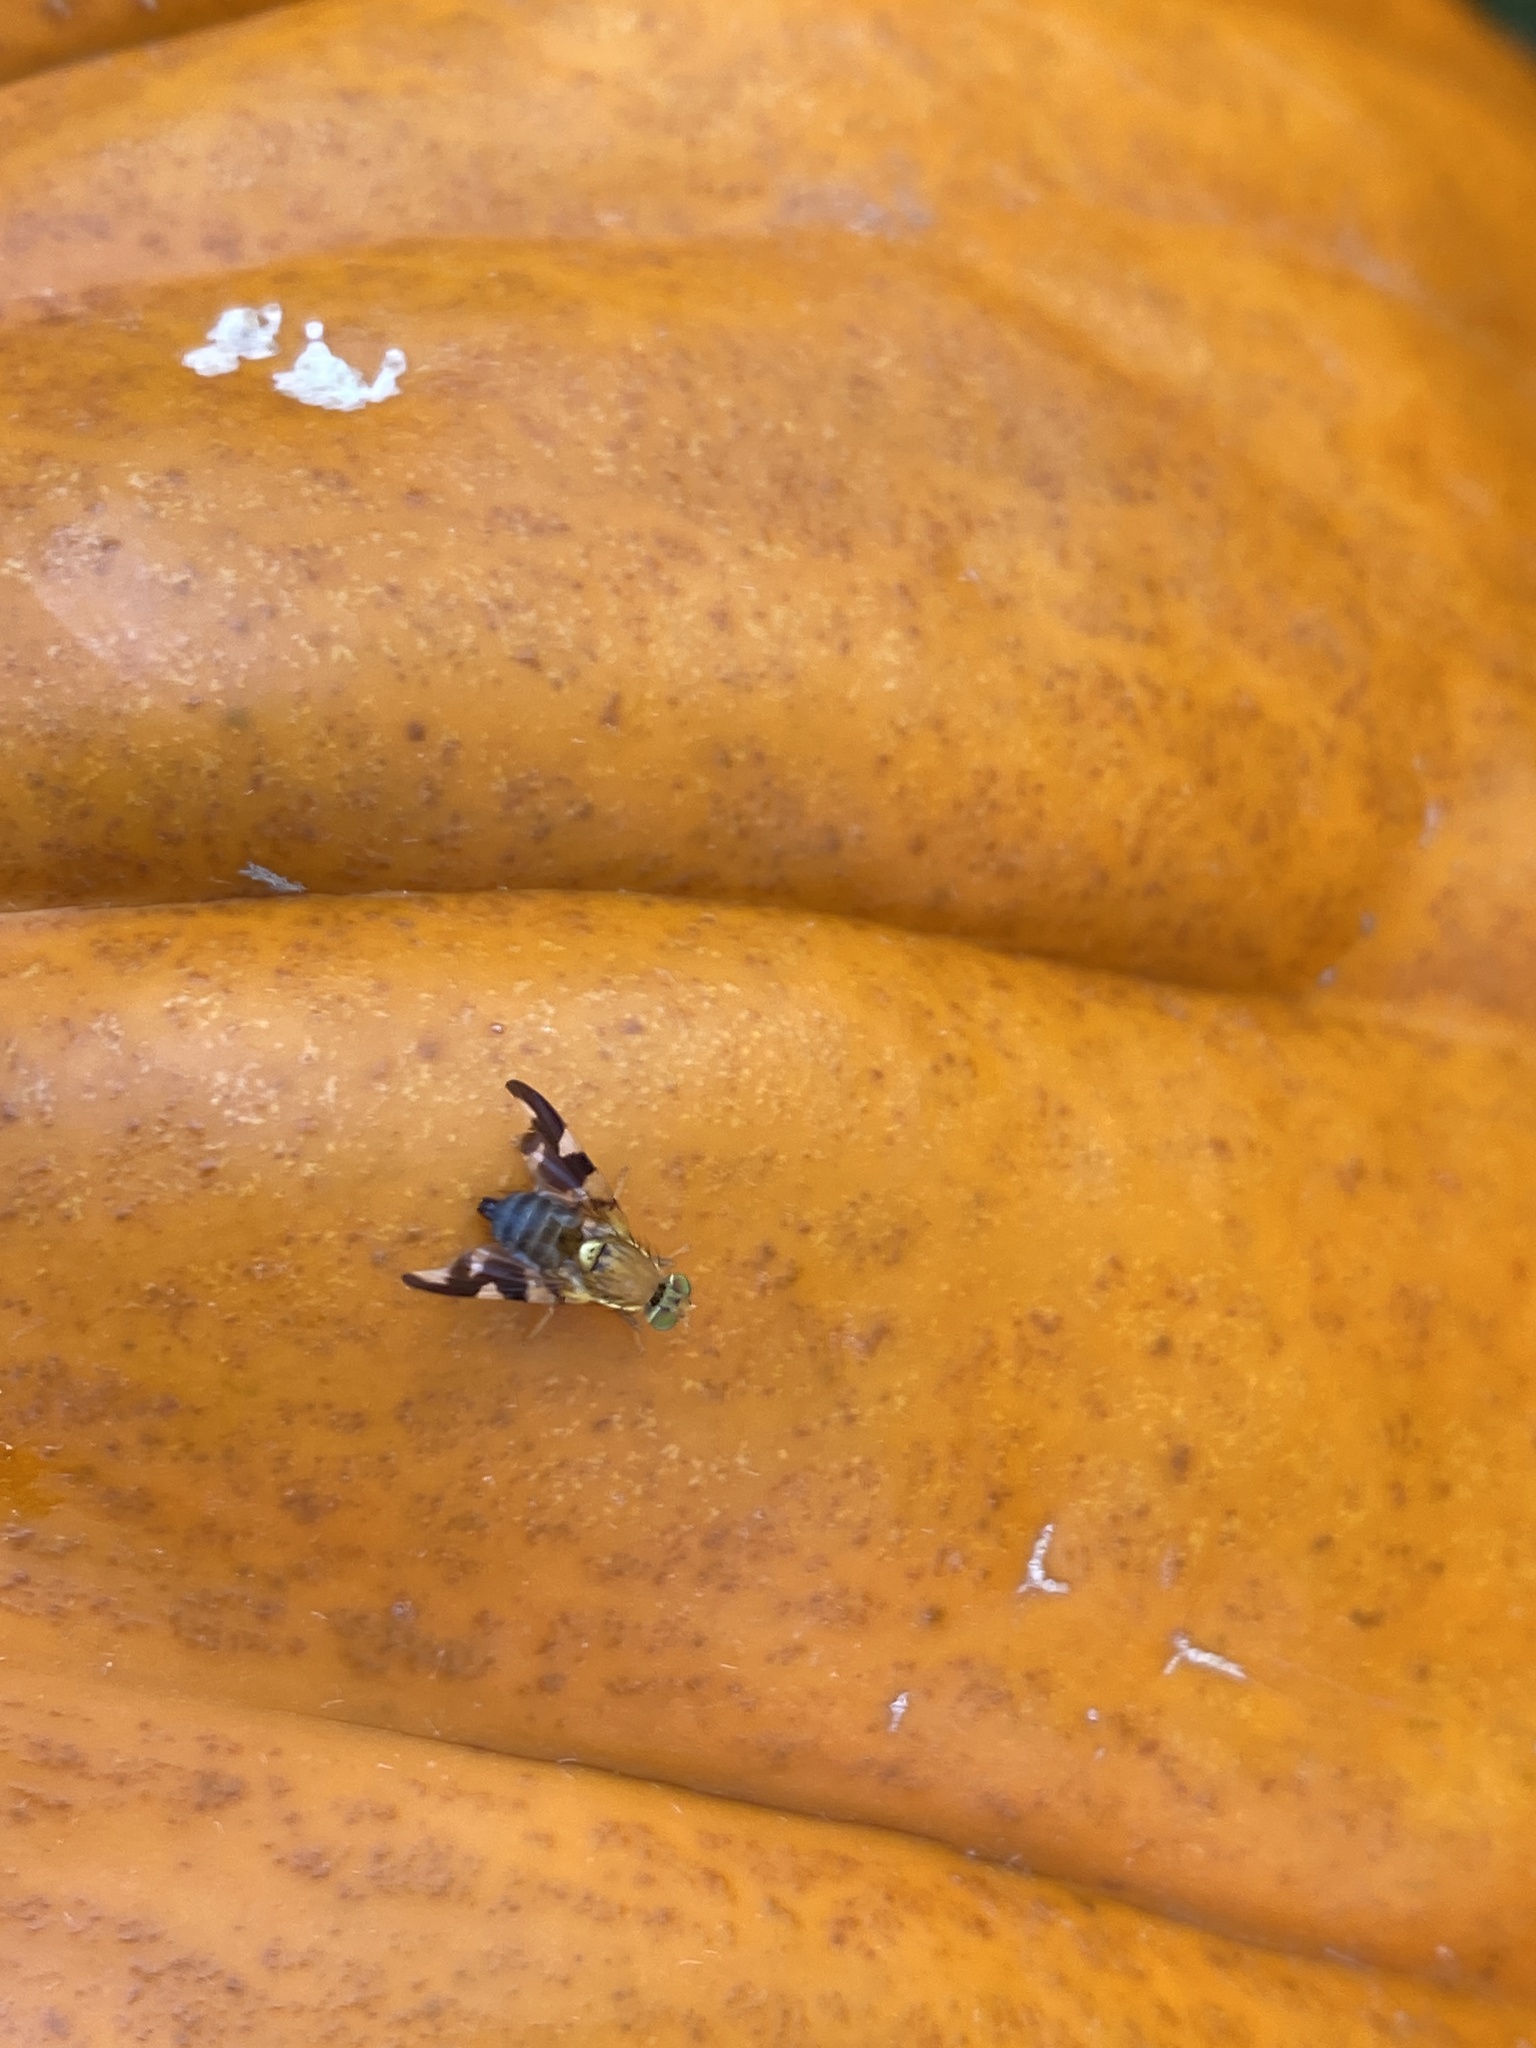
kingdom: Animalia
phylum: Arthropoda
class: Insecta
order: Diptera
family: Tephritidae
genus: Rhagoletis
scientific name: Rhagoletis suavis
